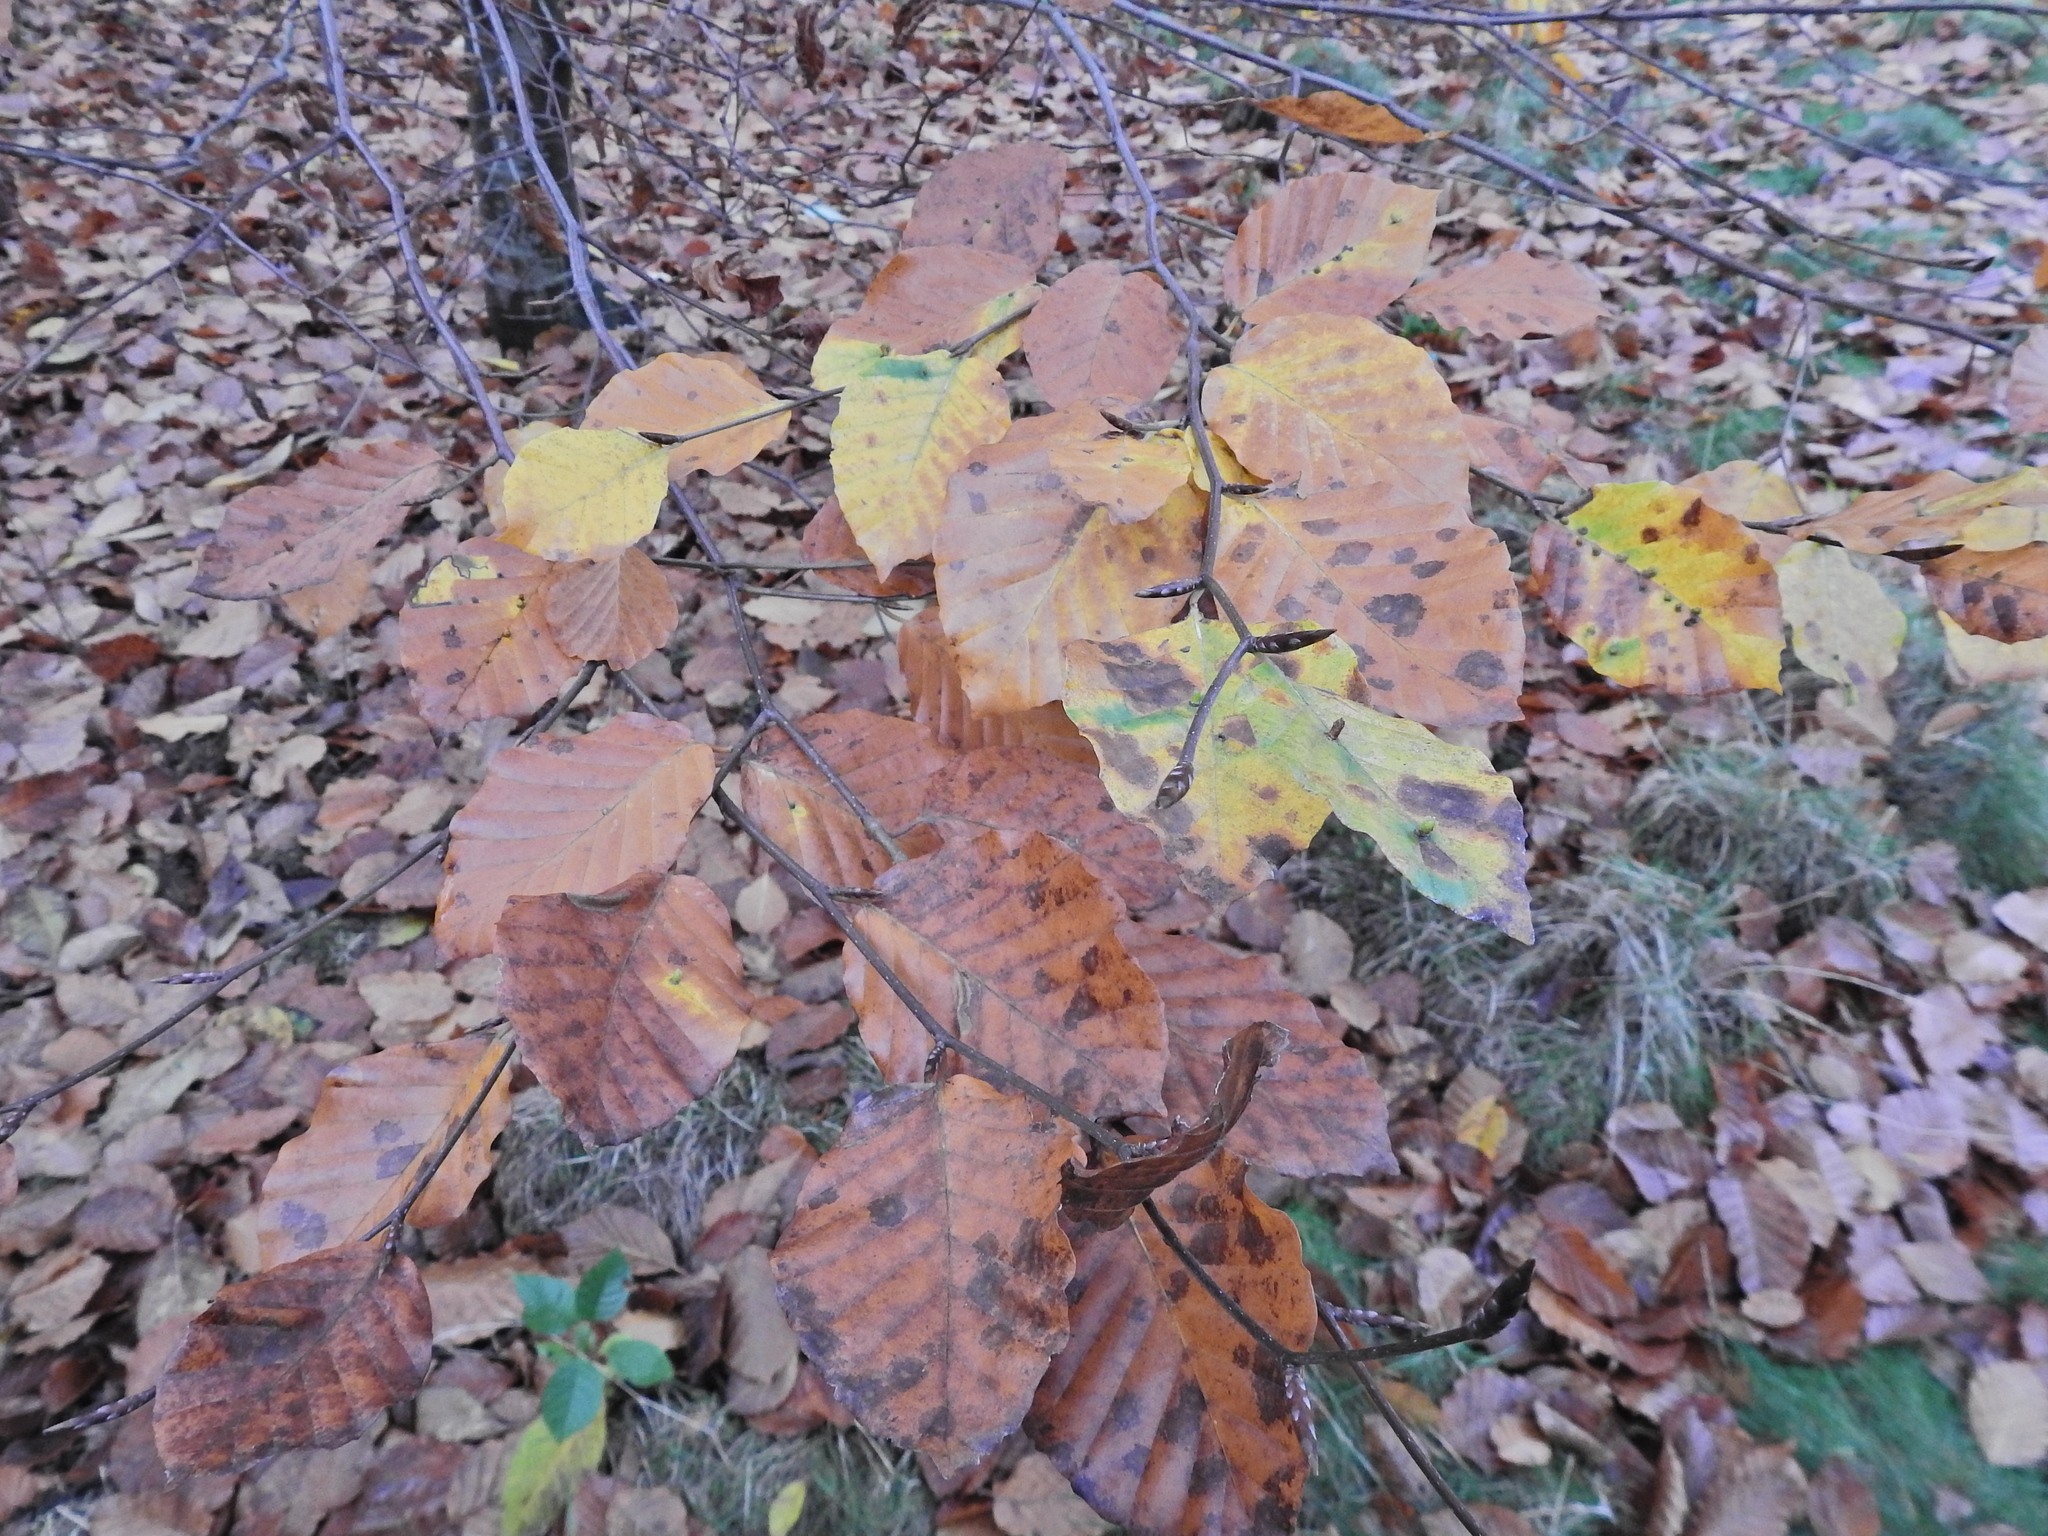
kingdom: Plantae
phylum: Tracheophyta
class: Magnoliopsida
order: Fagales
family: Fagaceae
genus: Fagus
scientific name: Fagus sylvatica
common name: Beech
